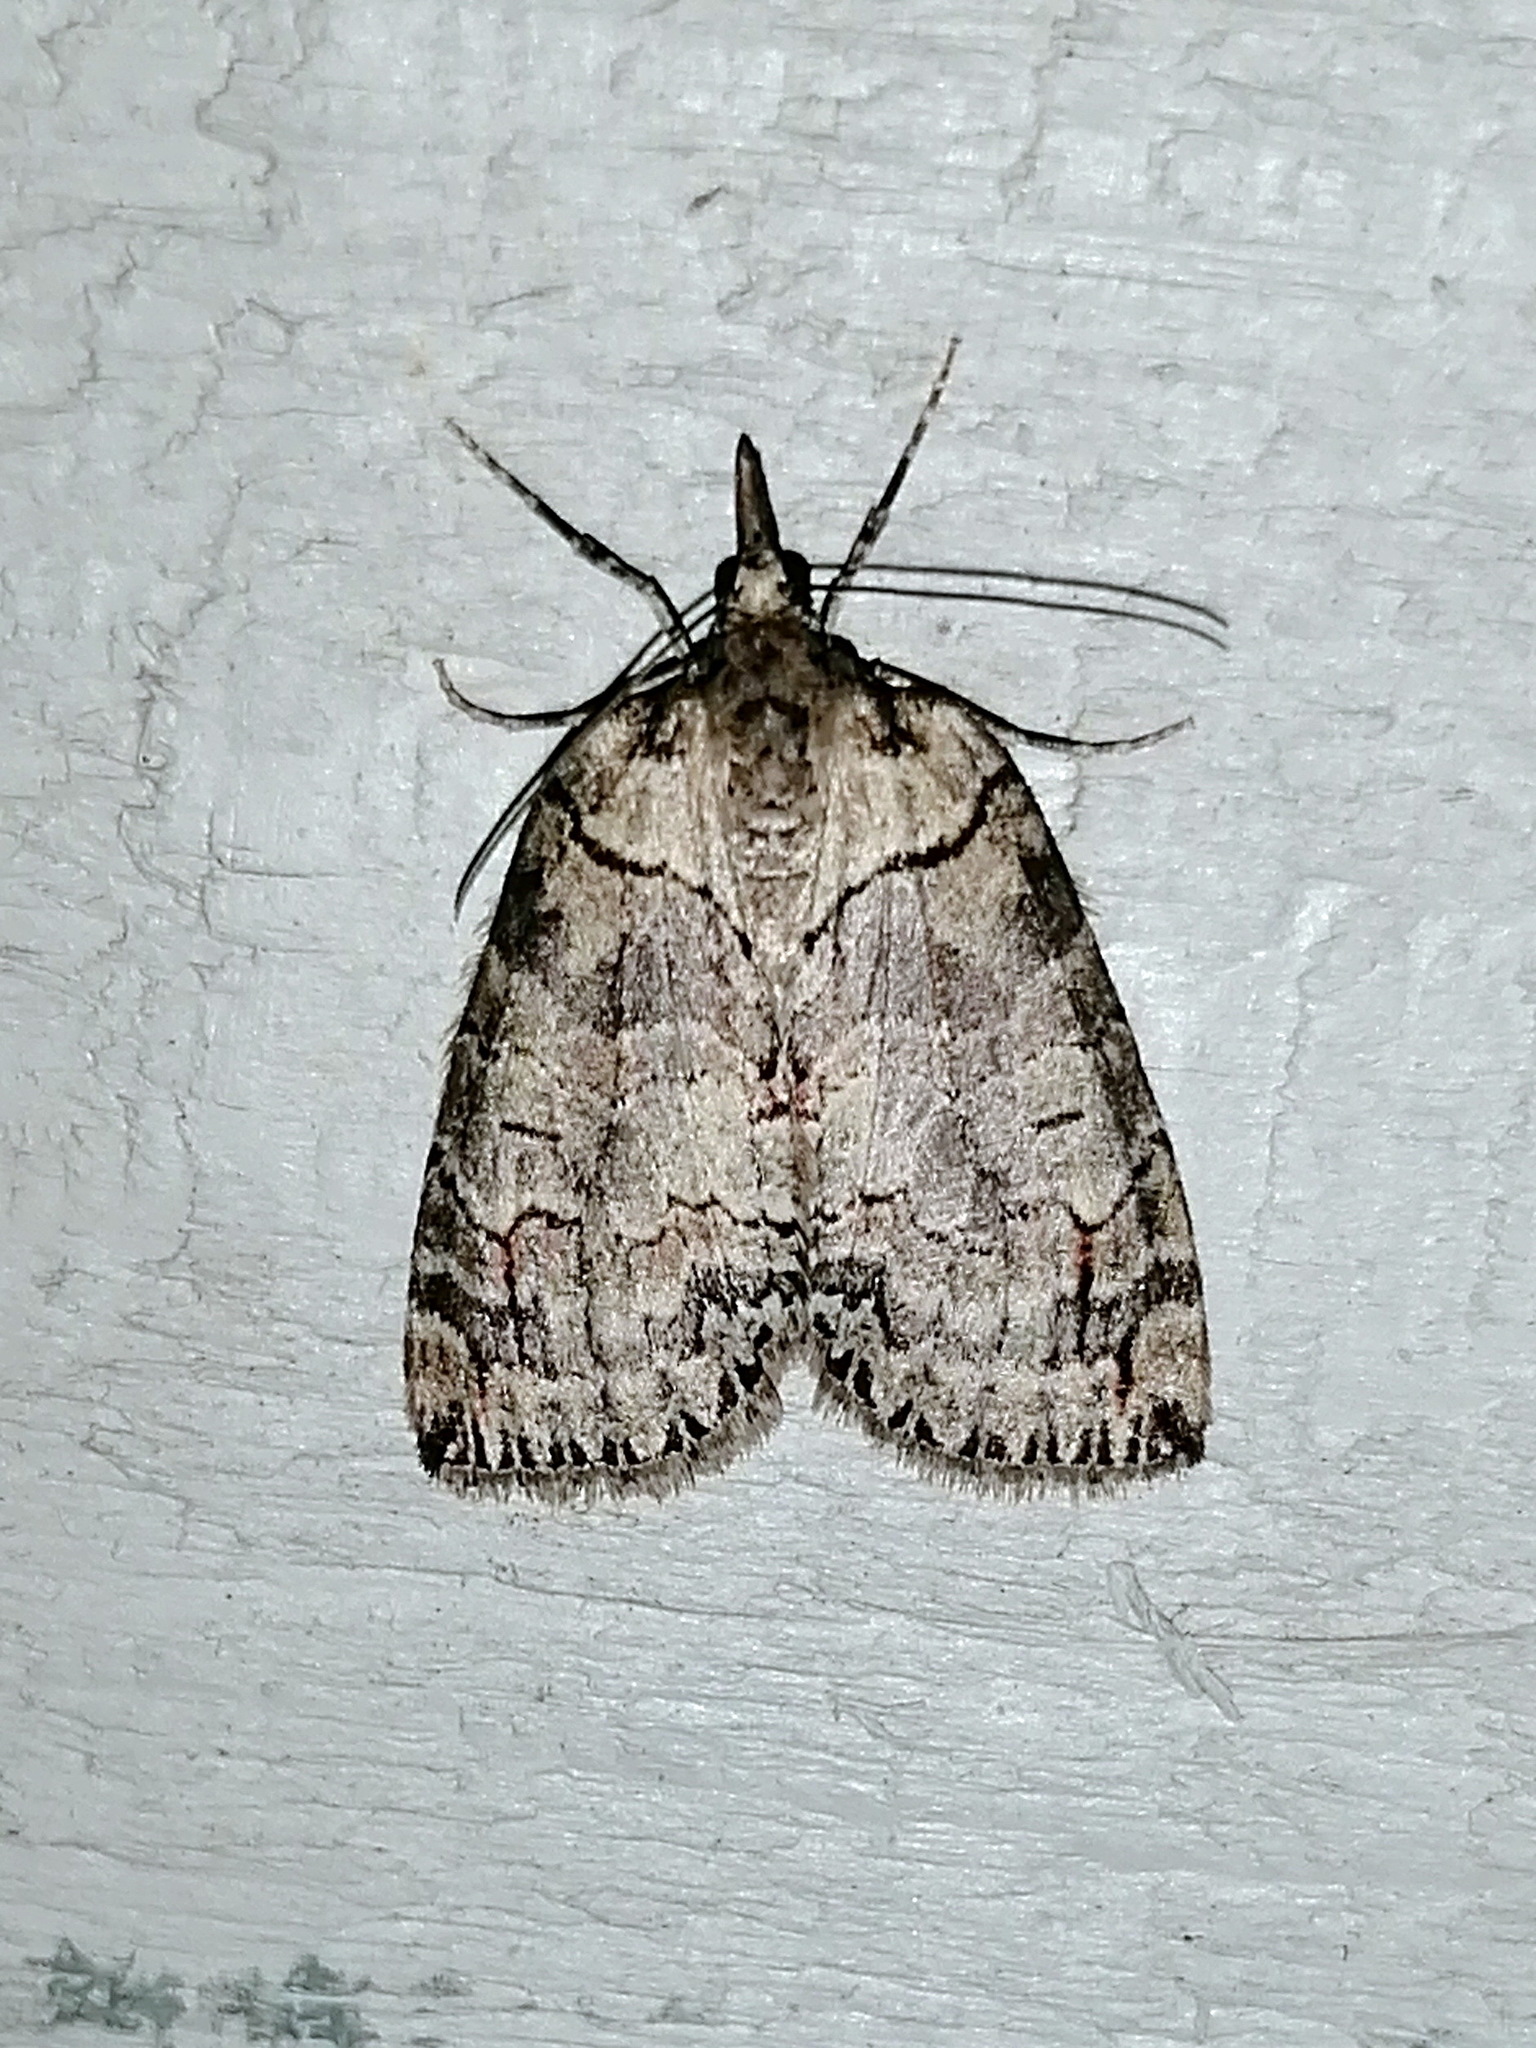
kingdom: Animalia
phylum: Arthropoda
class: Insecta
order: Lepidoptera
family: Geometridae
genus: Hydriomena
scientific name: Hydriomena ruberata
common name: Ruddy highflyer
